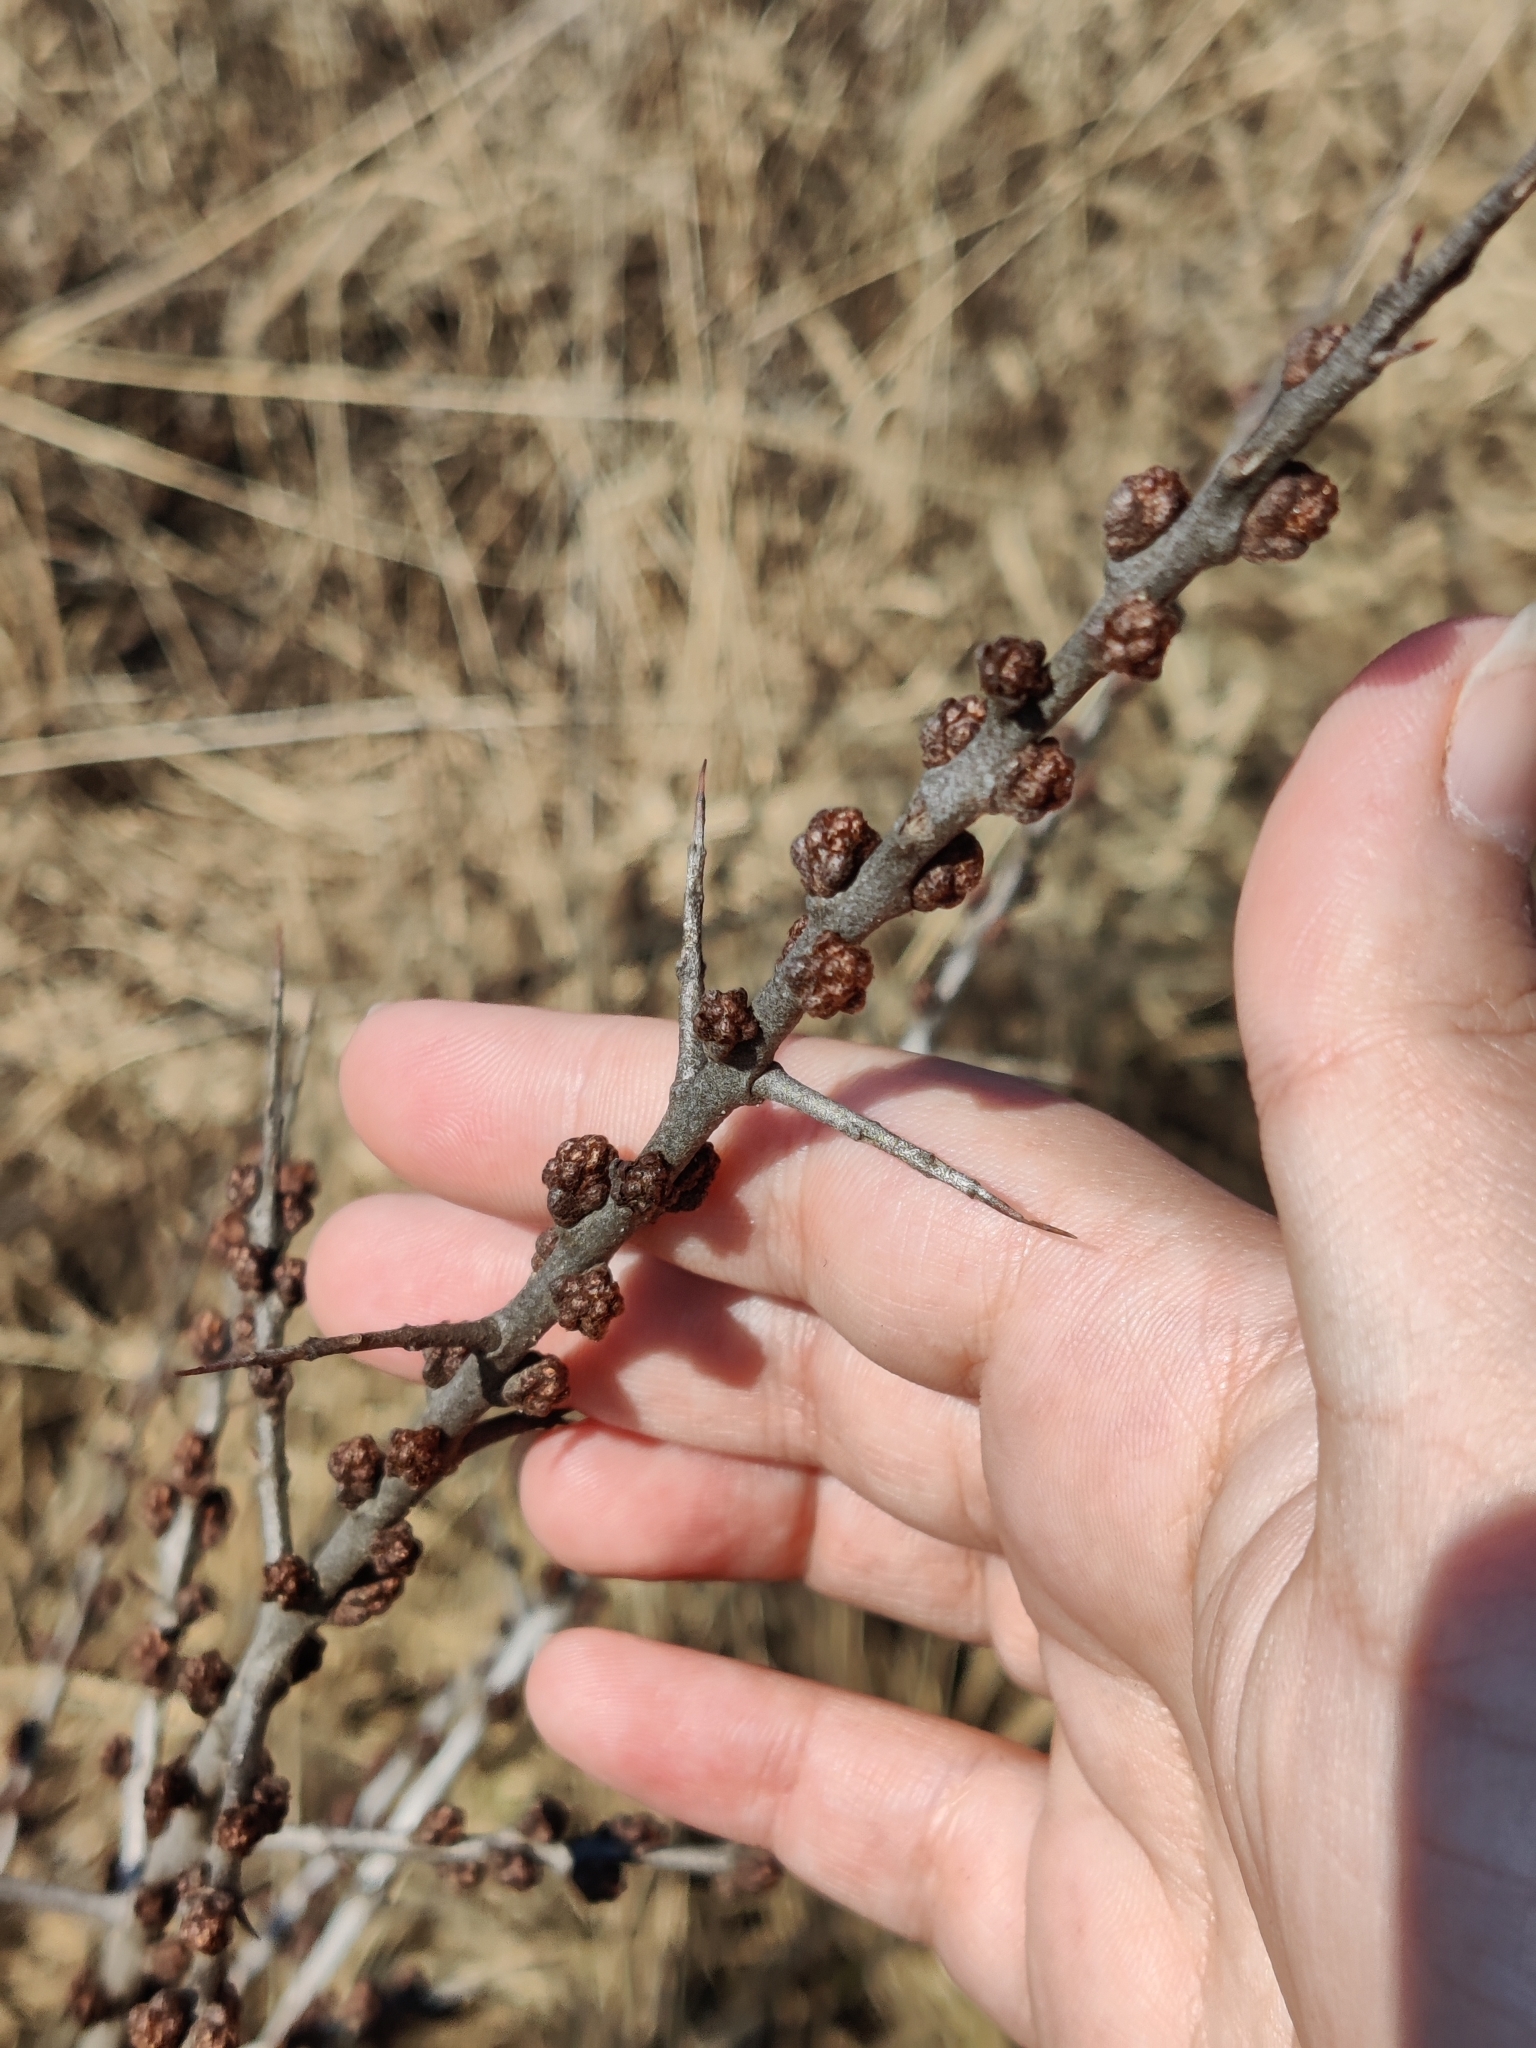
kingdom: Plantae
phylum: Tracheophyta
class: Magnoliopsida
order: Rosales
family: Elaeagnaceae
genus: Hippophae
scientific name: Hippophae rhamnoides
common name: Sea-buckthorn
